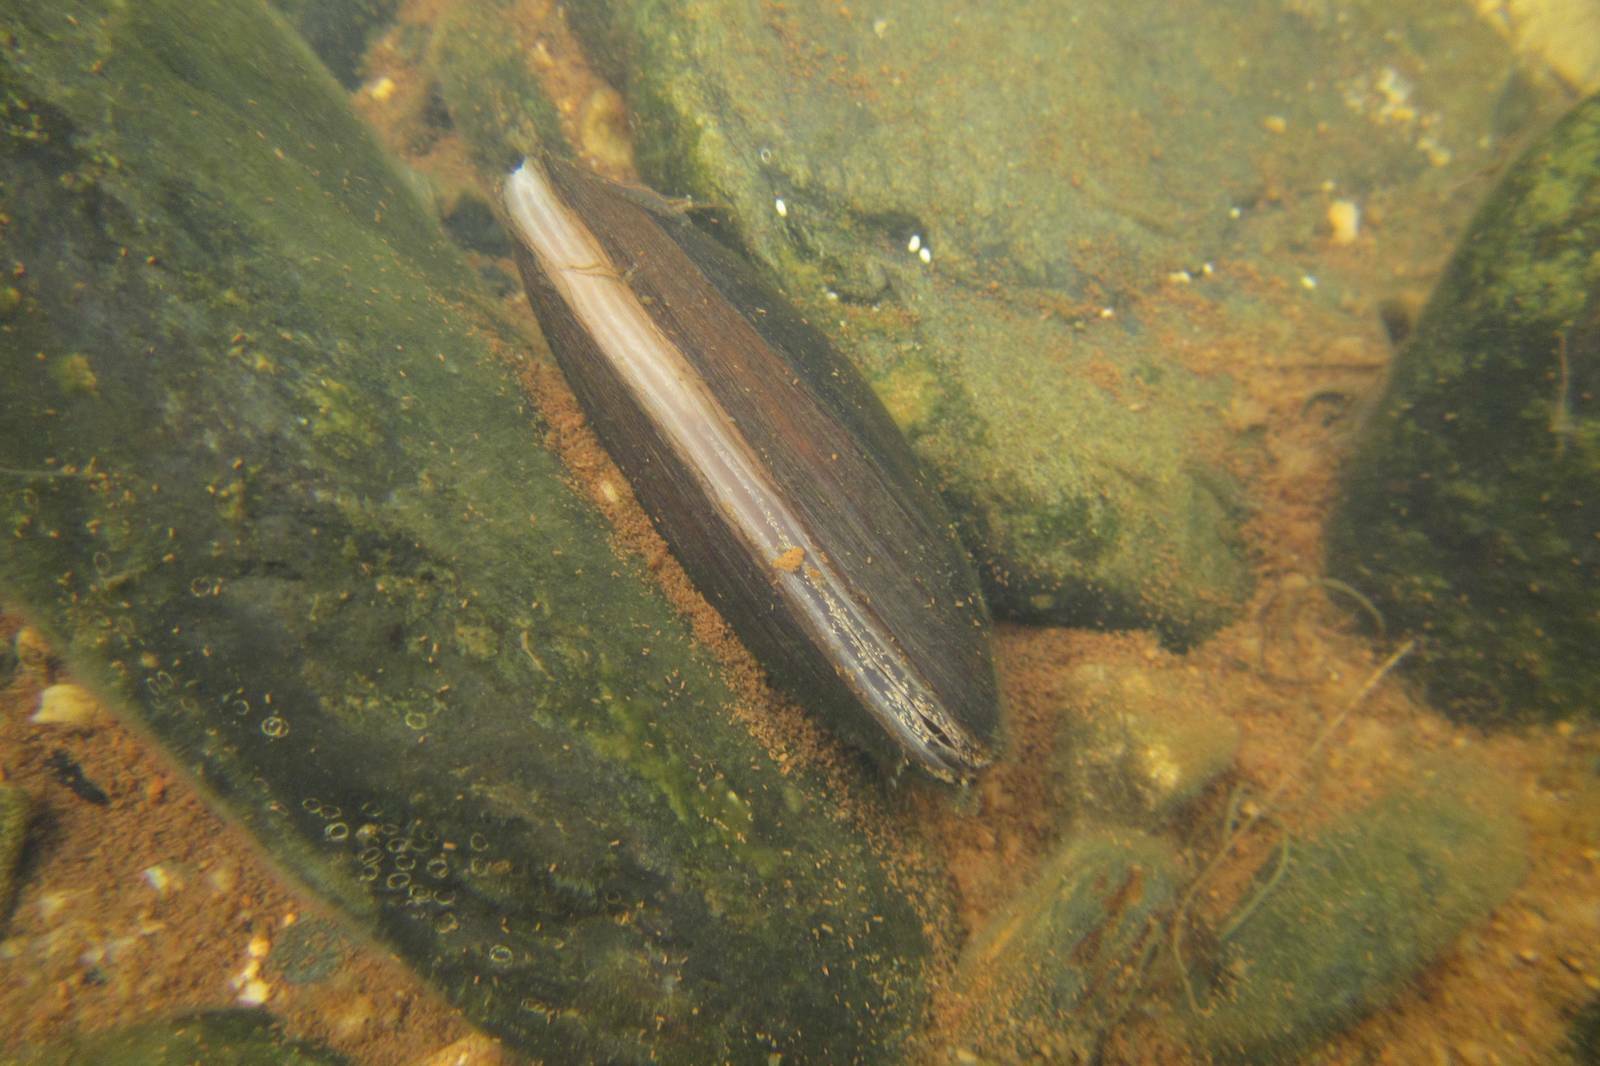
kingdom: Animalia
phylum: Mollusca
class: Bivalvia
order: Unionida
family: Hyriidae
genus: Alathyria
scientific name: Alathyria pertexta
